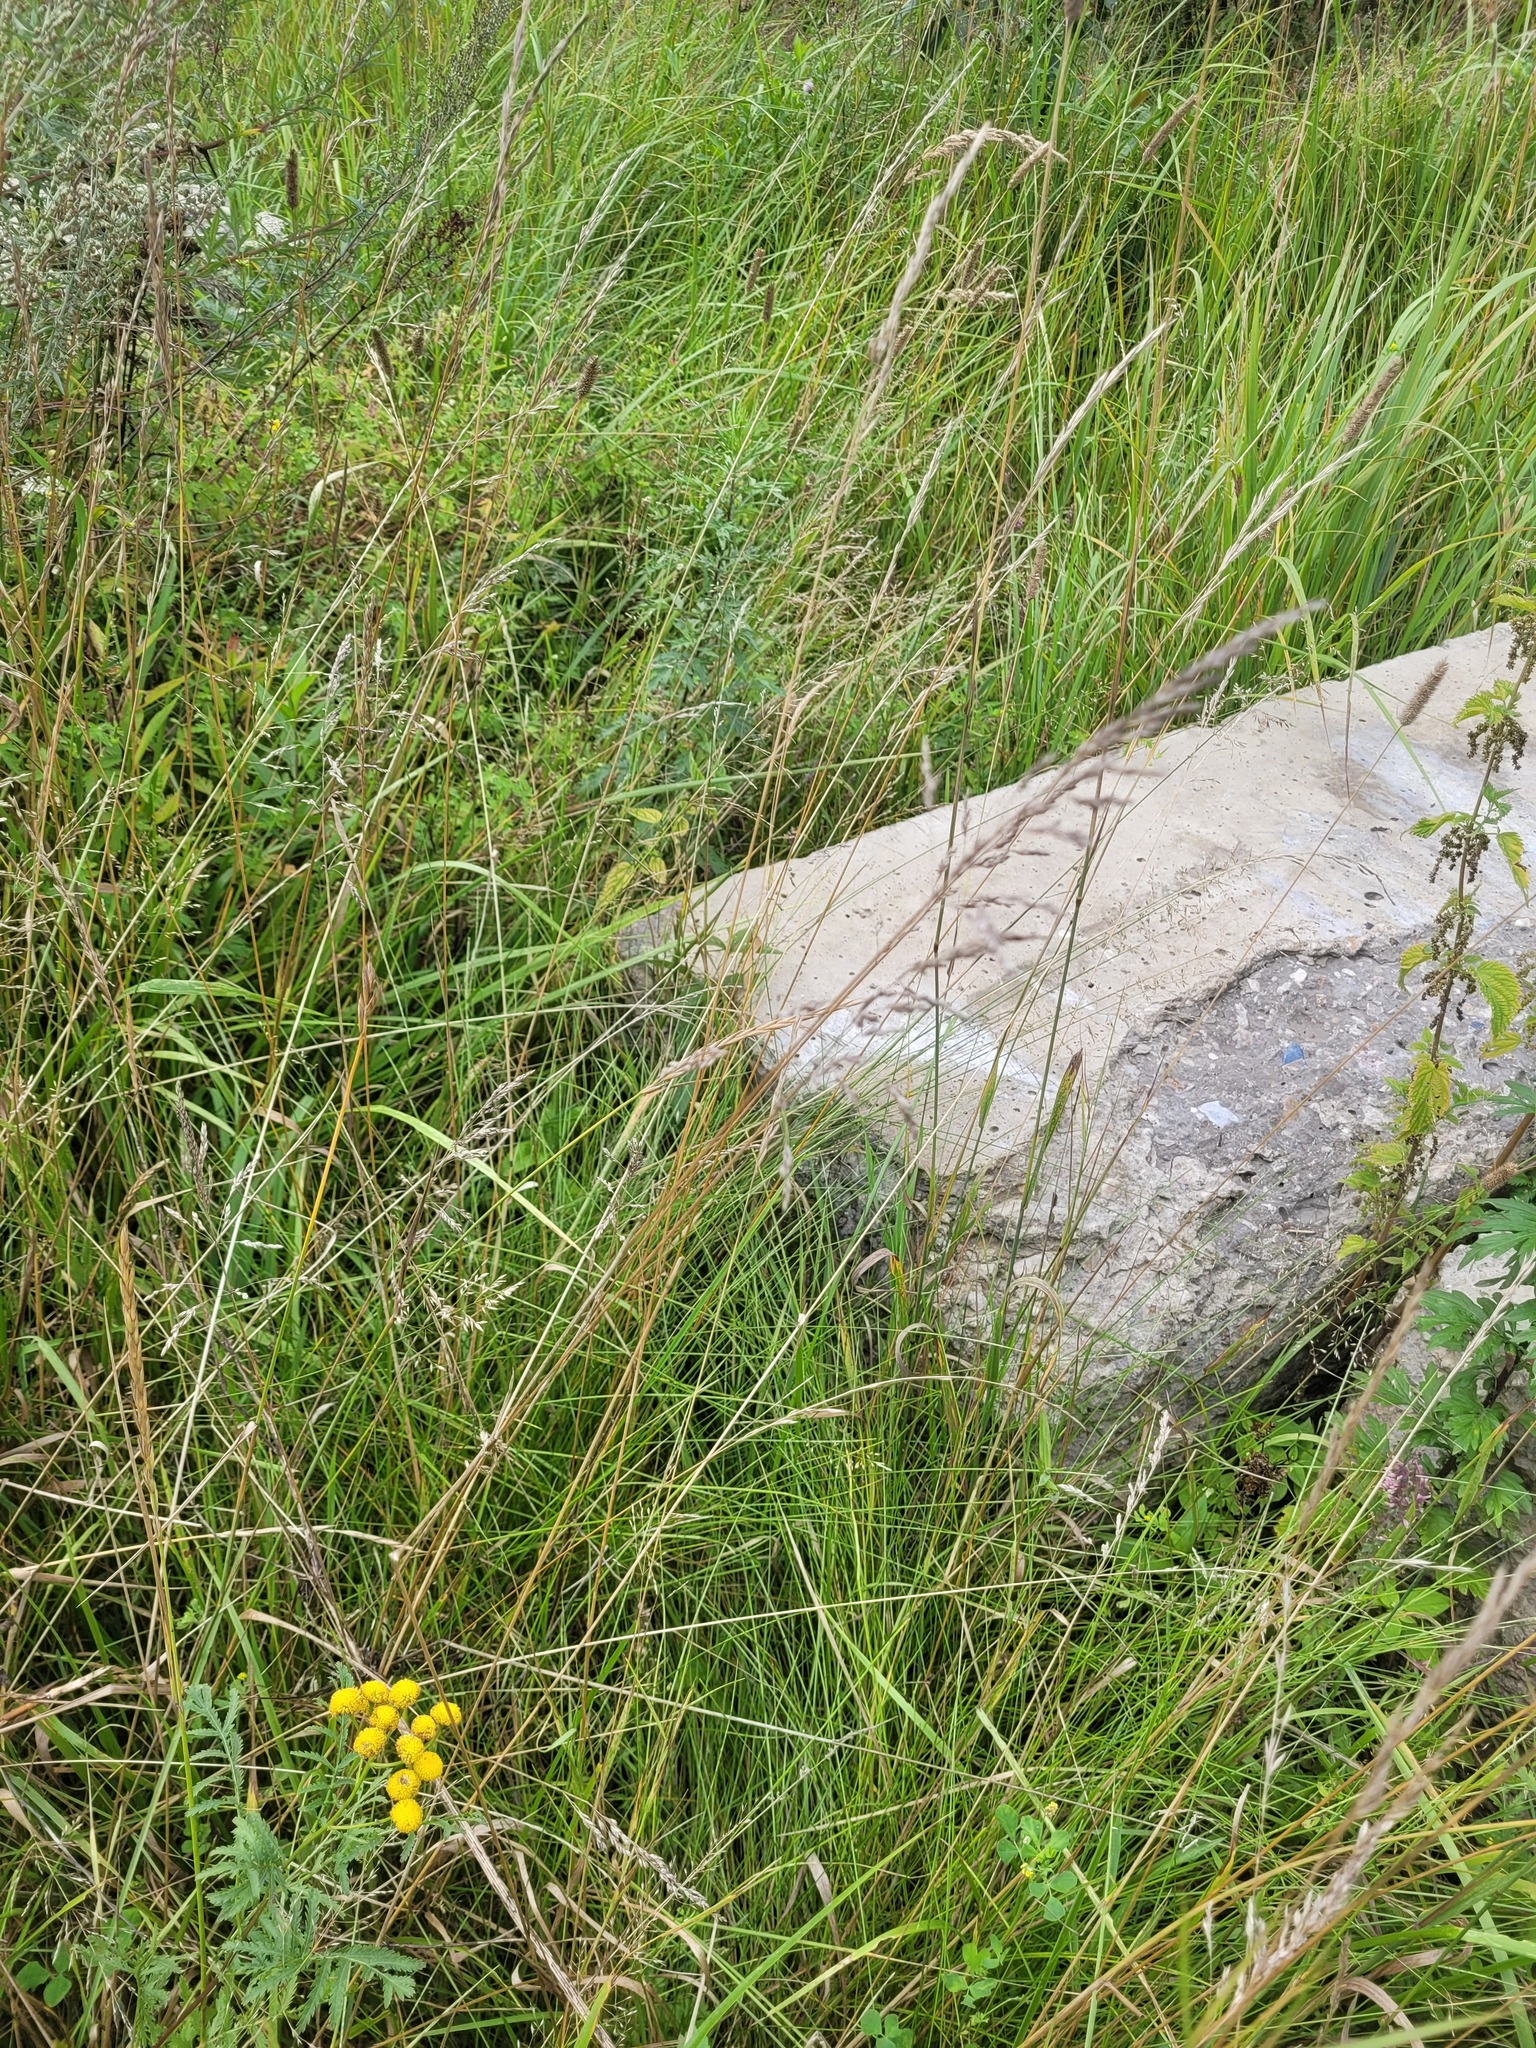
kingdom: Plantae
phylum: Tracheophyta
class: Liliopsida
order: Poales
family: Poaceae
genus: Poa
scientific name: Poa angustifolia
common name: Narrow-leaved meadow-grass
